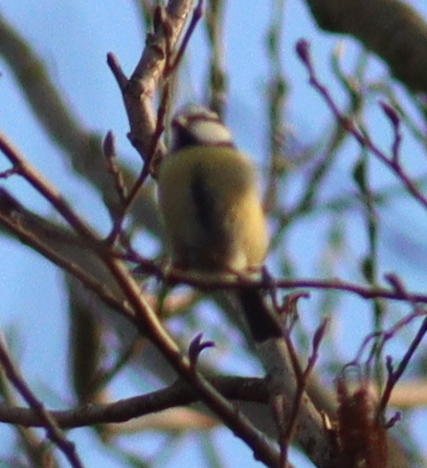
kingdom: Animalia
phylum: Chordata
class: Aves
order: Passeriformes
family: Paridae
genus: Cyanistes
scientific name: Cyanistes caeruleus
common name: Eurasian blue tit
